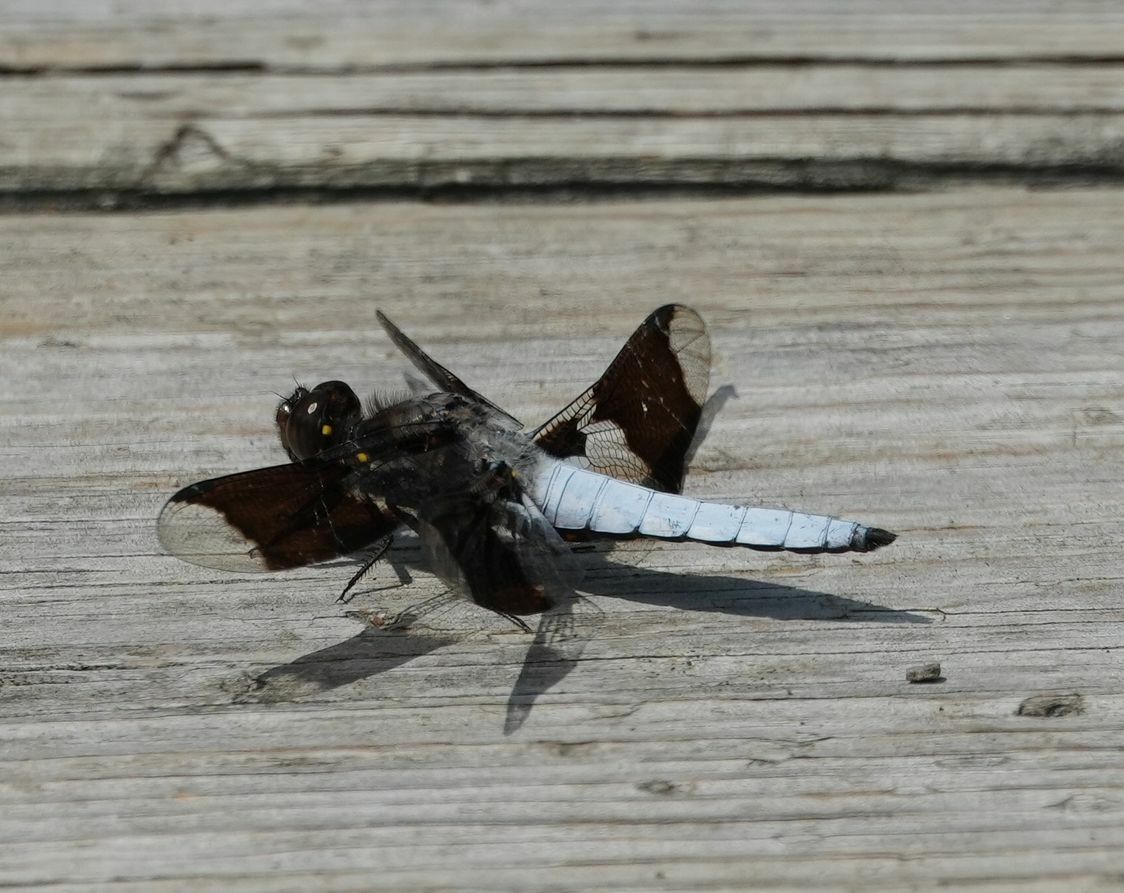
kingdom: Animalia
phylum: Arthropoda
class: Insecta
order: Odonata
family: Libellulidae
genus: Plathemis
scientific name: Plathemis lydia
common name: Common whitetail
